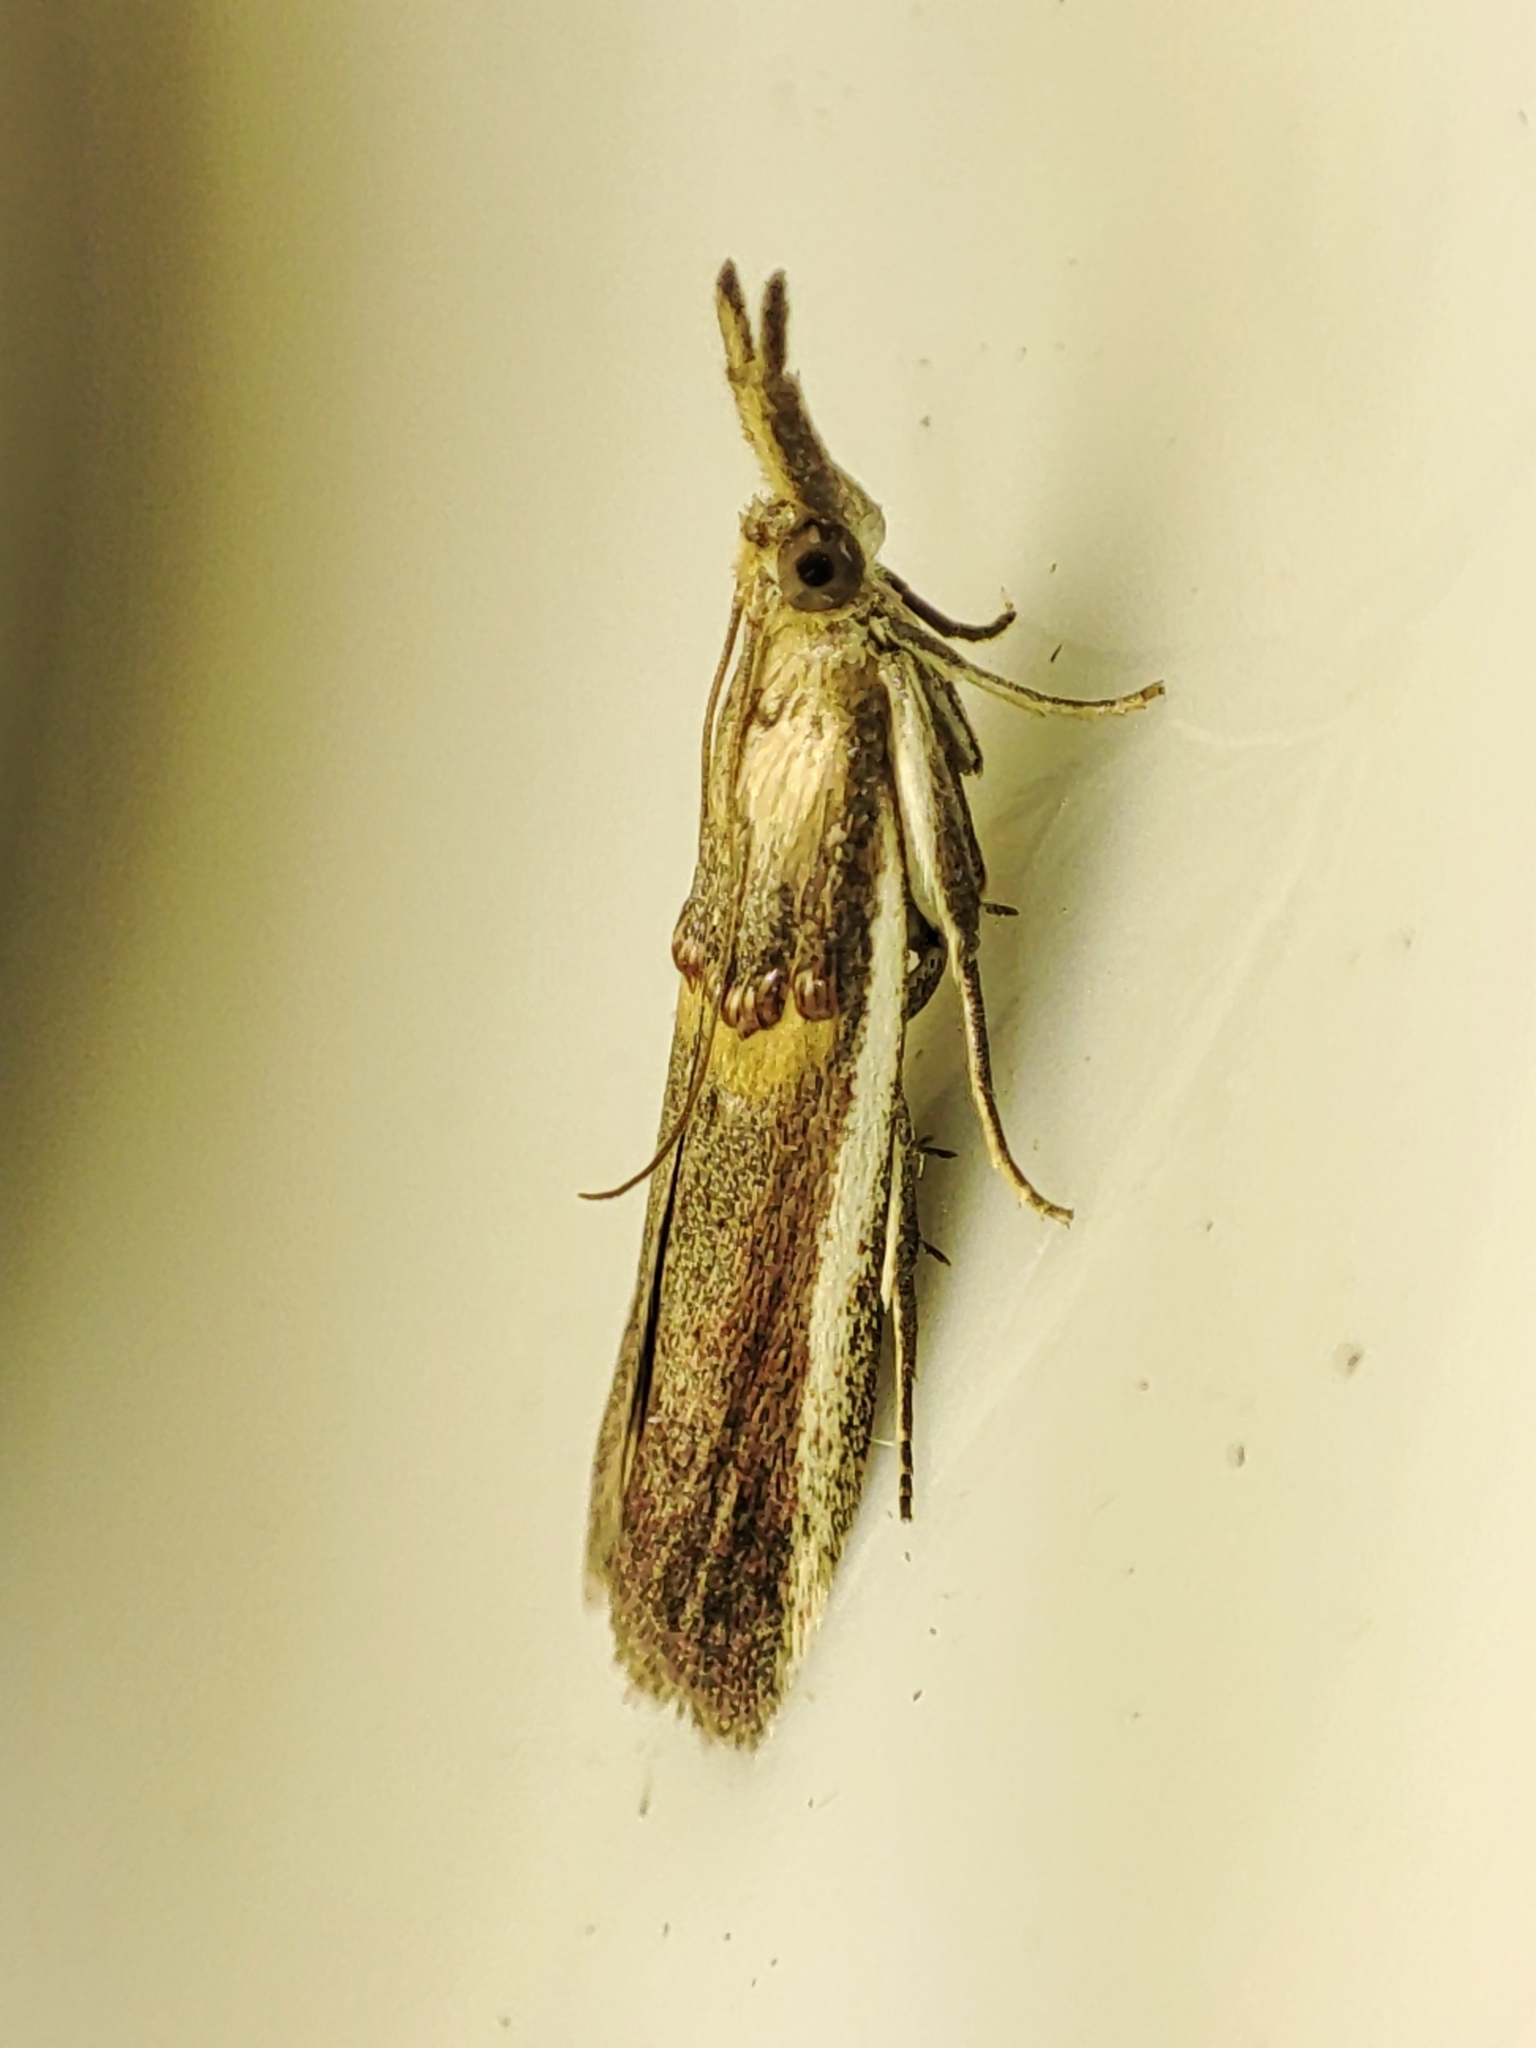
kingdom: Animalia
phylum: Arthropoda
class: Insecta
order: Lepidoptera
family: Pyralidae
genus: Etiella
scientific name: Etiella zinckenella
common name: Gold-banded etiella moth
